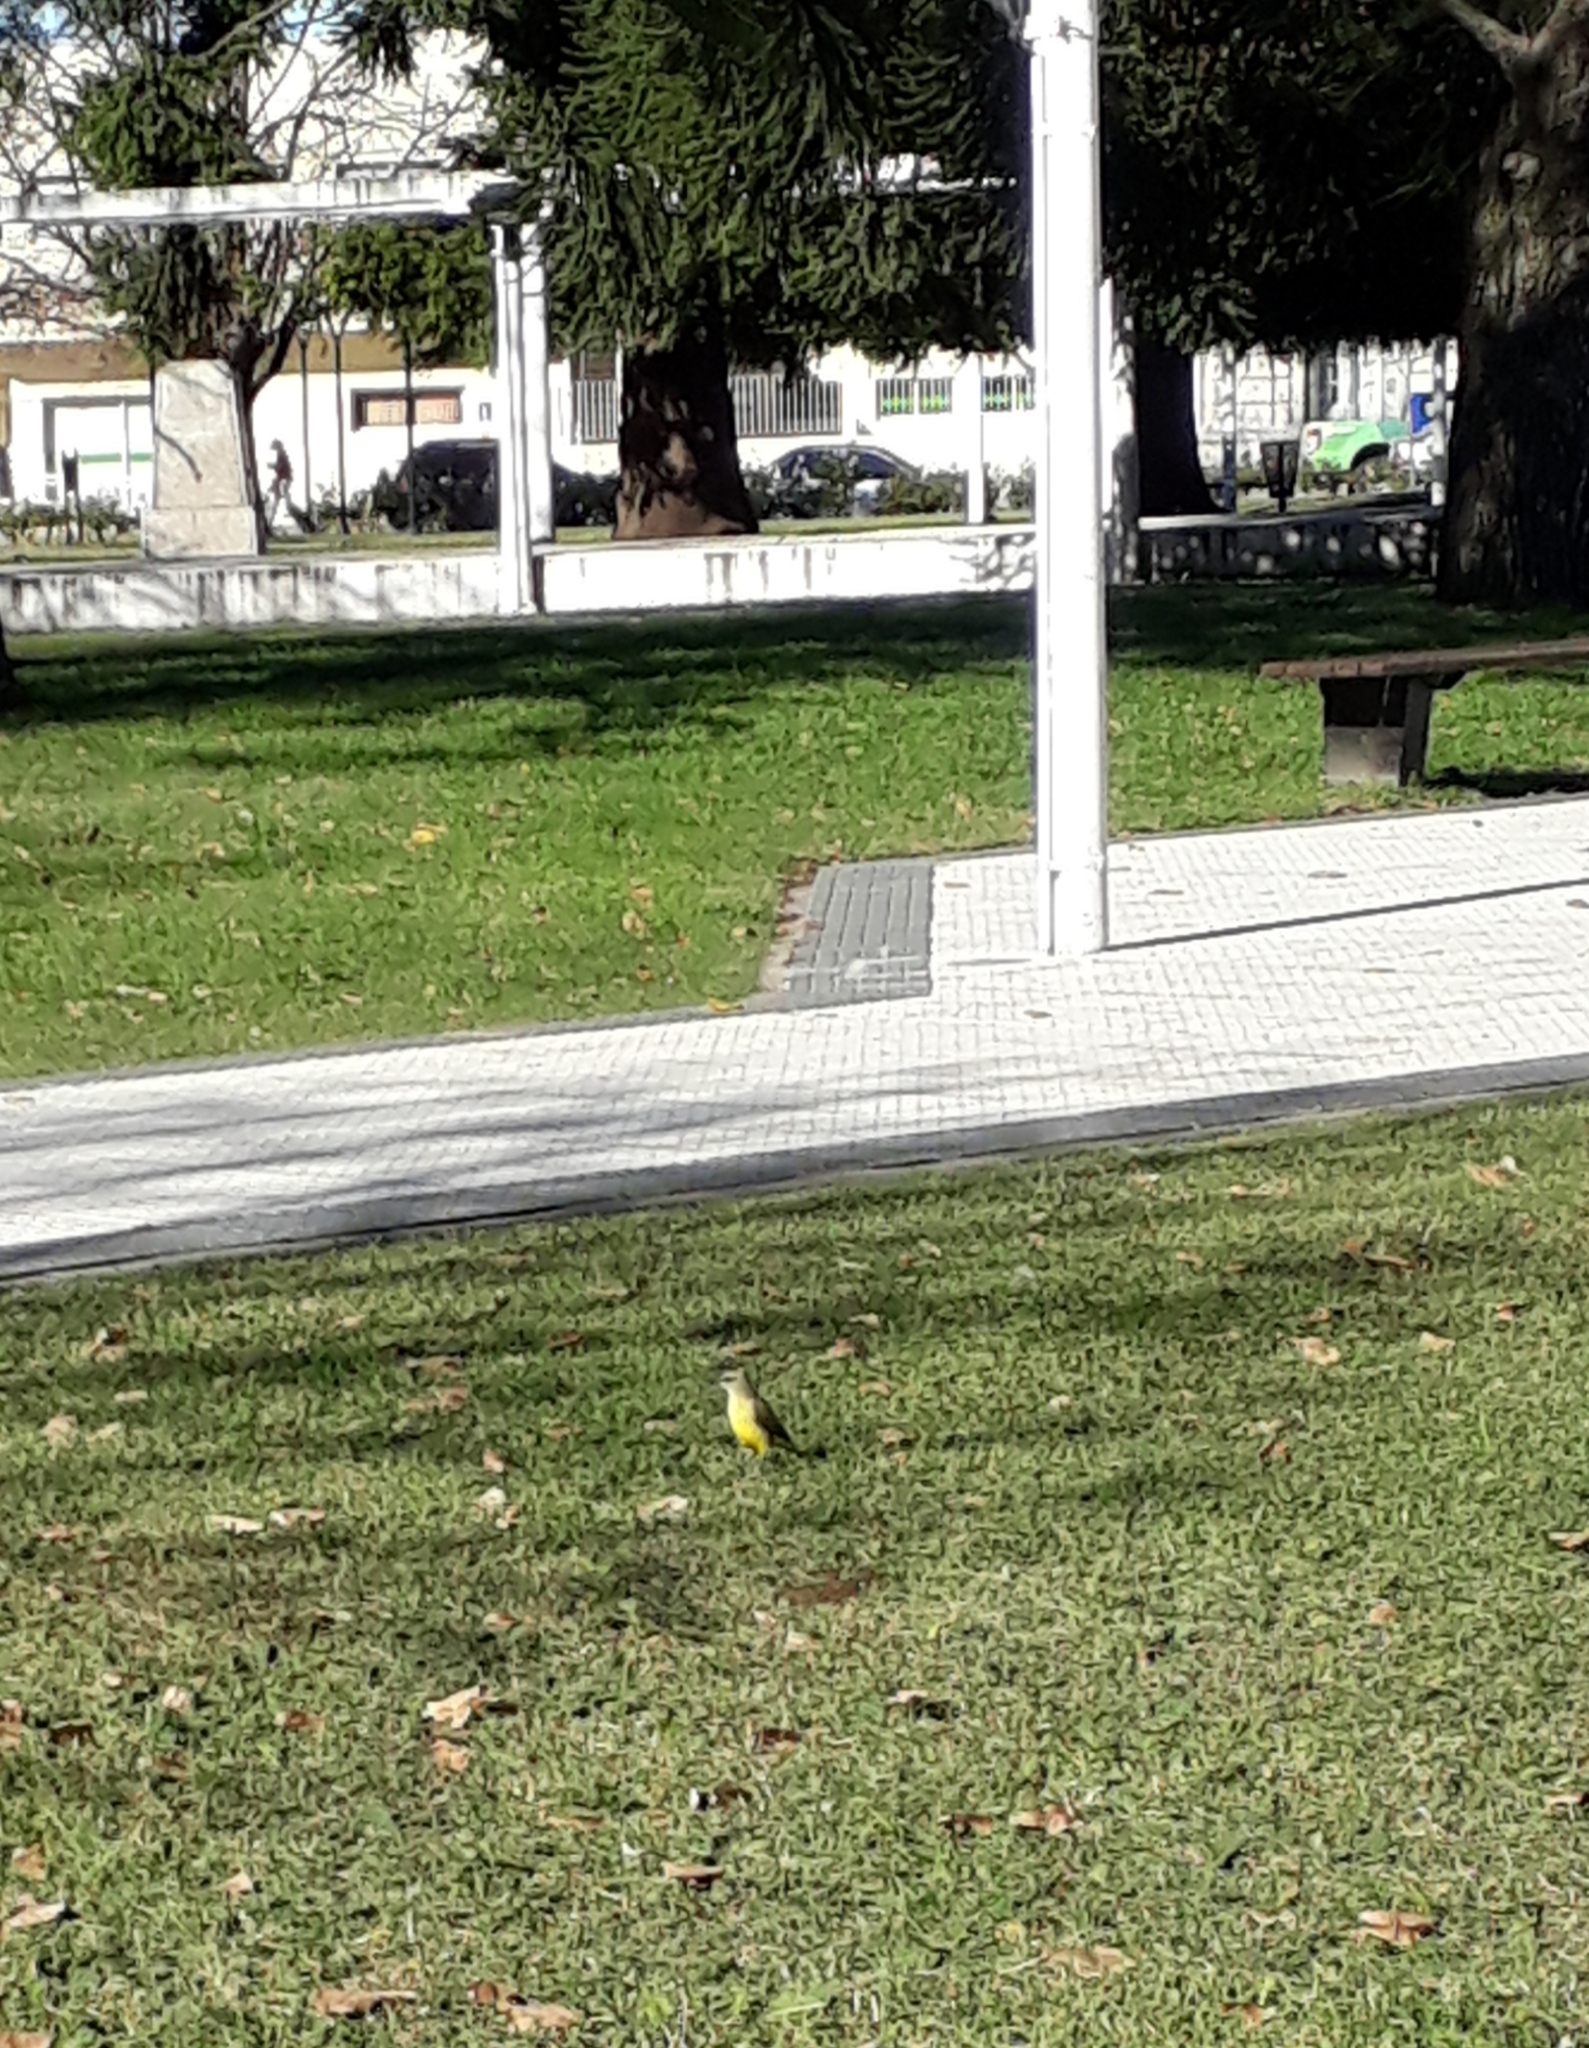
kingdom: Animalia
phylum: Chordata
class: Aves
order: Passeriformes
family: Tyrannidae
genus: Machetornis
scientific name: Machetornis rixosa
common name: Cattle tyrant
